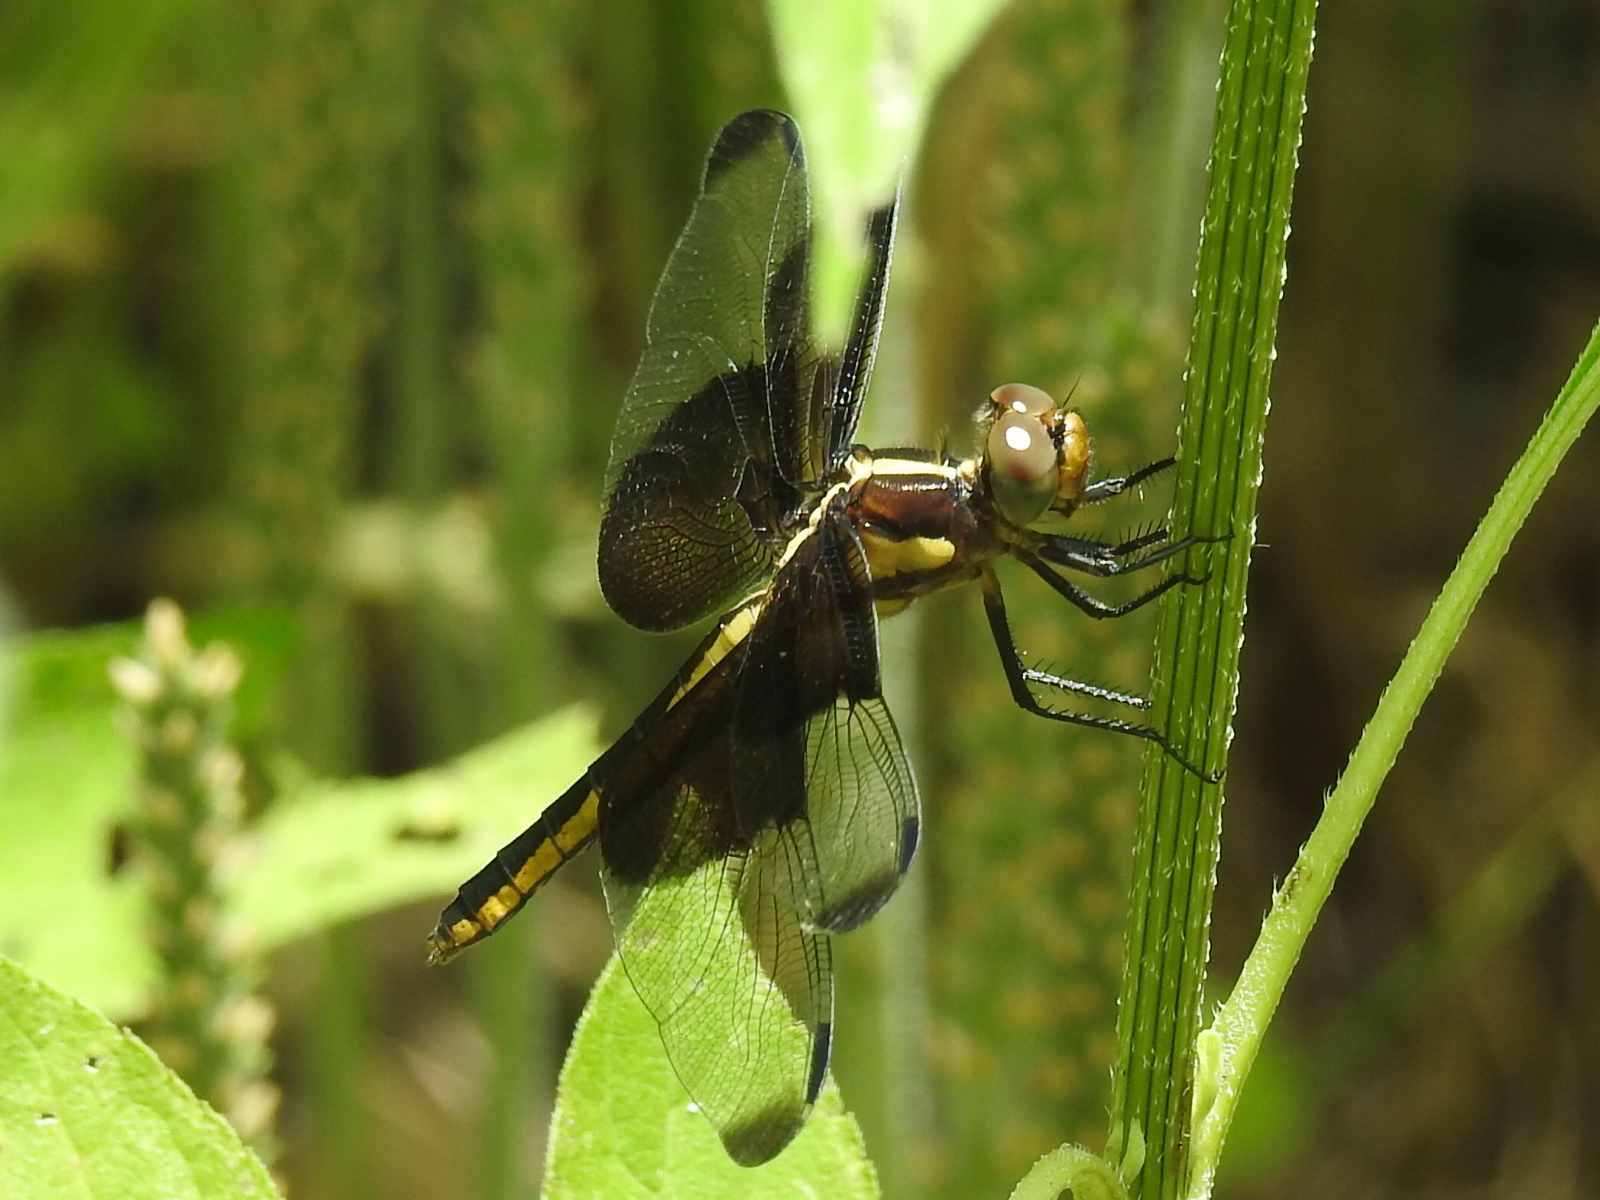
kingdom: Animalia
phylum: Arthropoda
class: Insecta
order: Odonata
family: Libellulidae
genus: Libellula
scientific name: Libellula luctuosa
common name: Widow skimmer
